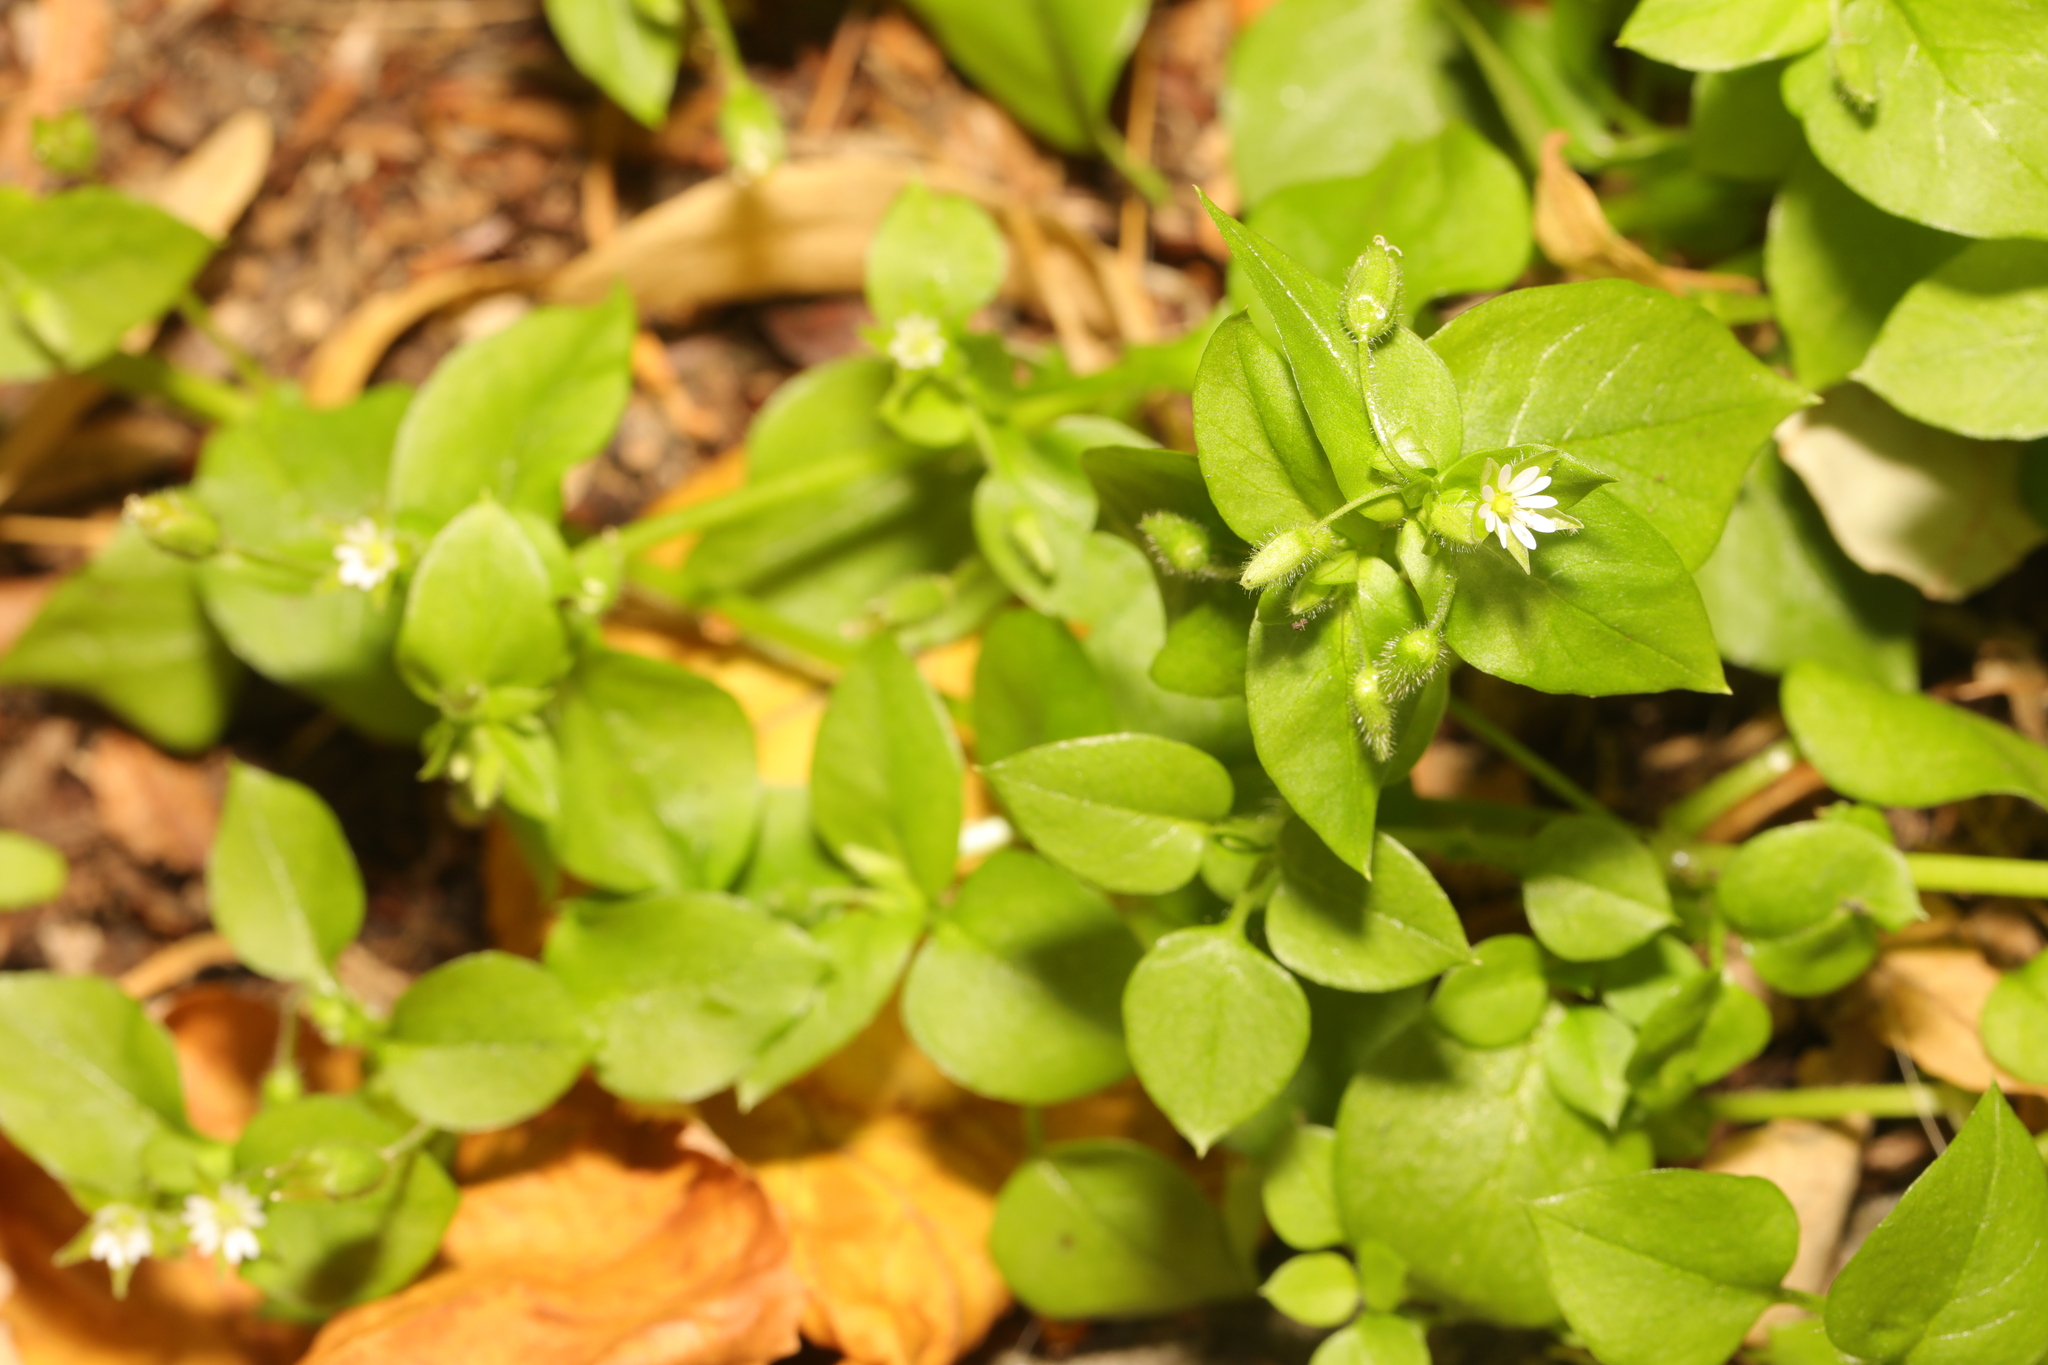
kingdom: Plantae
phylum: Tracheophyta
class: Magnoliopsida
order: Caryophyllales
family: Caryophyllaceae
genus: Stellaria
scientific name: Stellaria media
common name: Common chickweed
